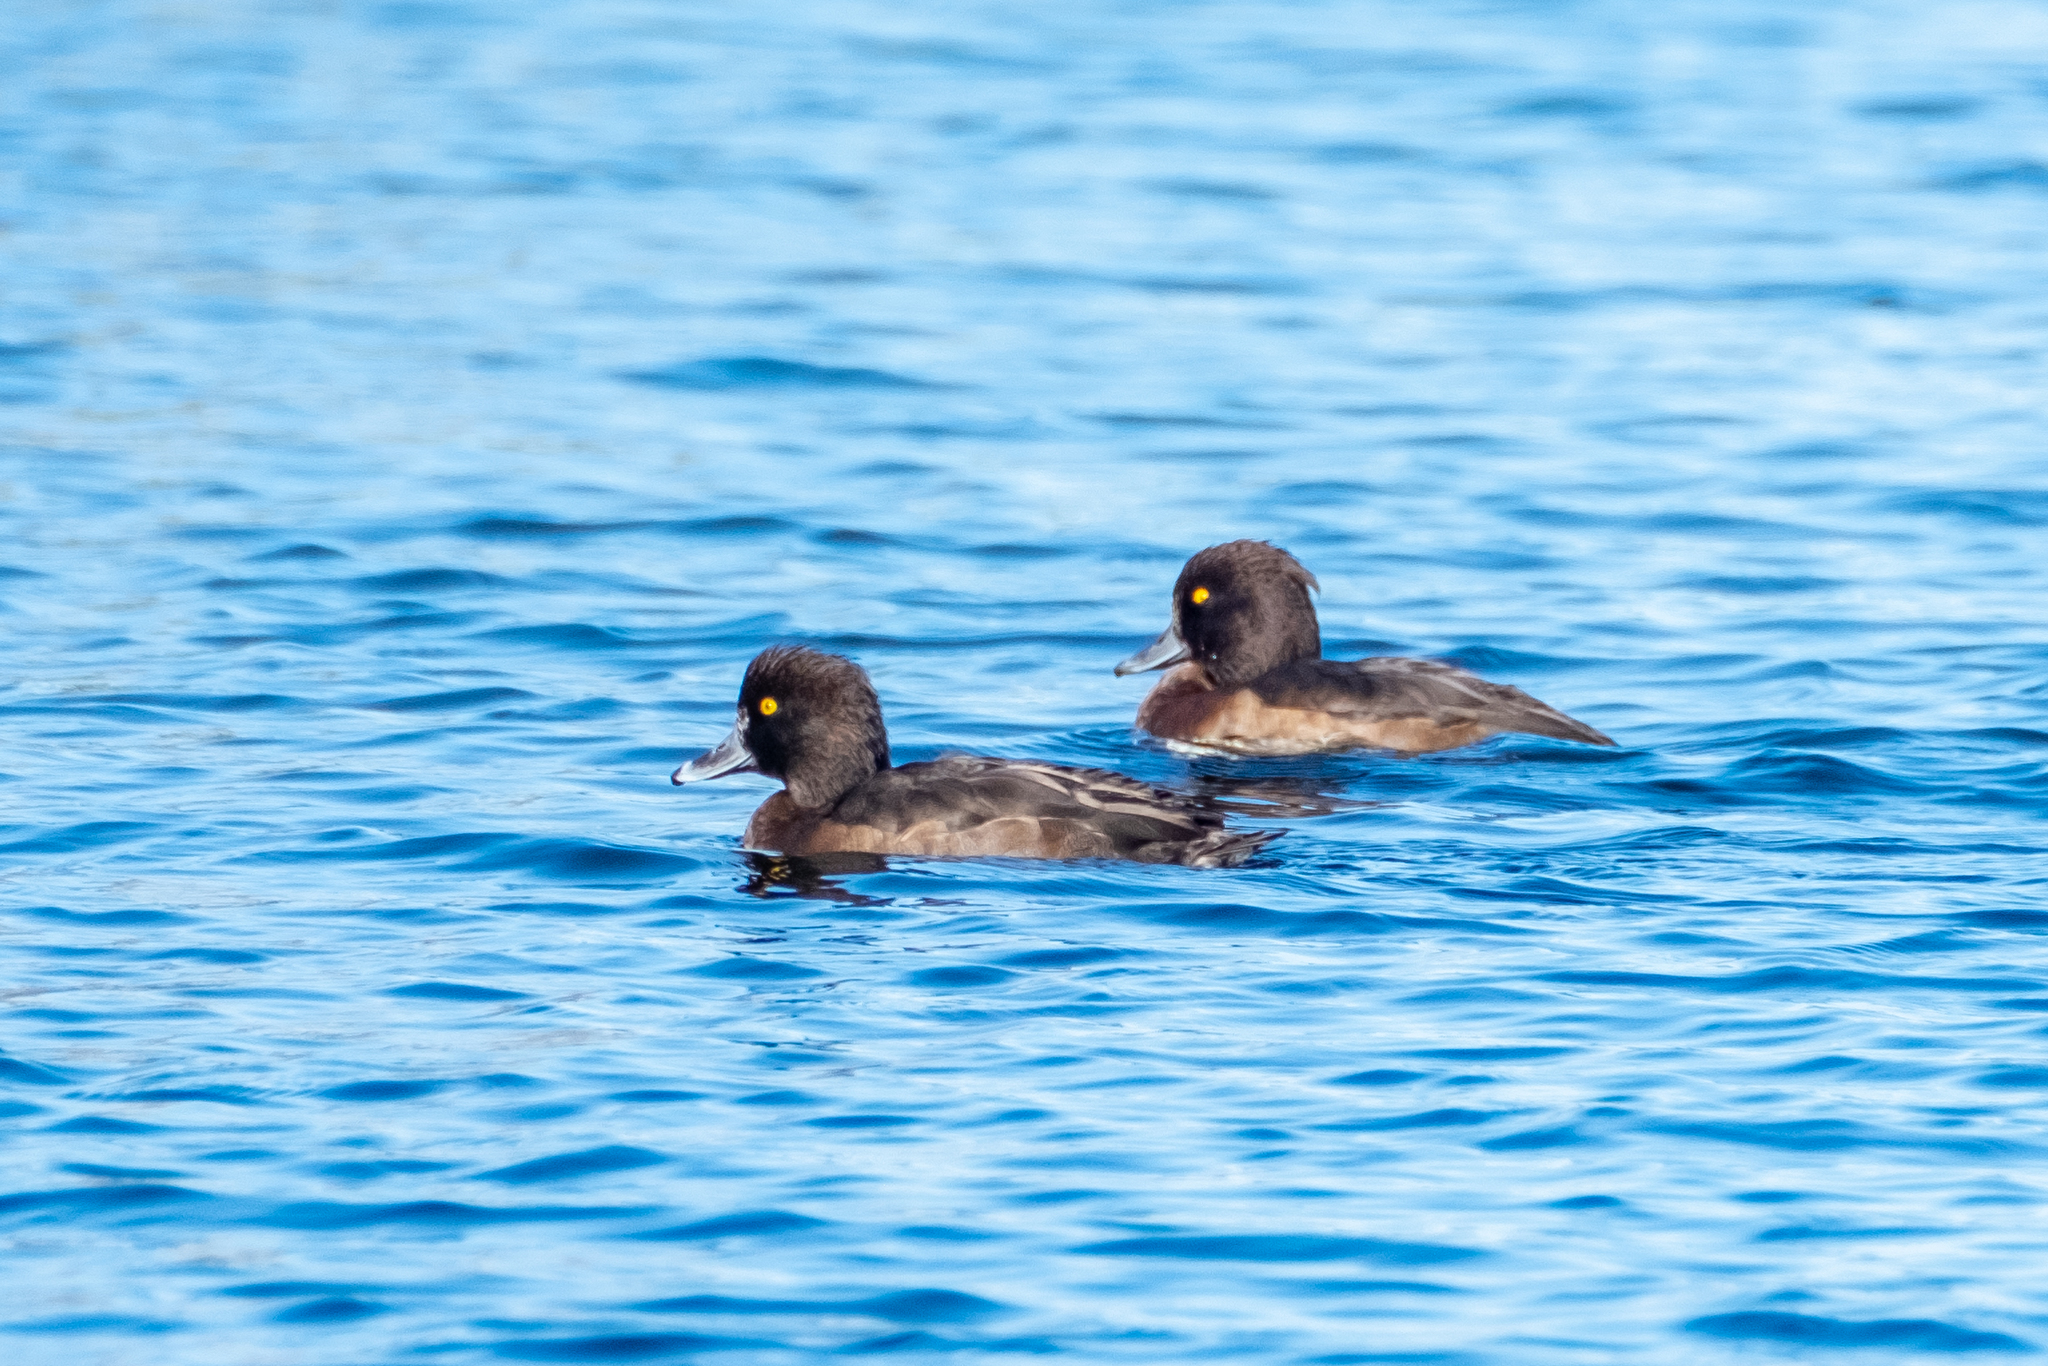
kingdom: Animalia
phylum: Chordata
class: Aves
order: Anseriformes
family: Anatidae
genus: Aythya
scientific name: Aythya fuligula
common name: Tufted duck
